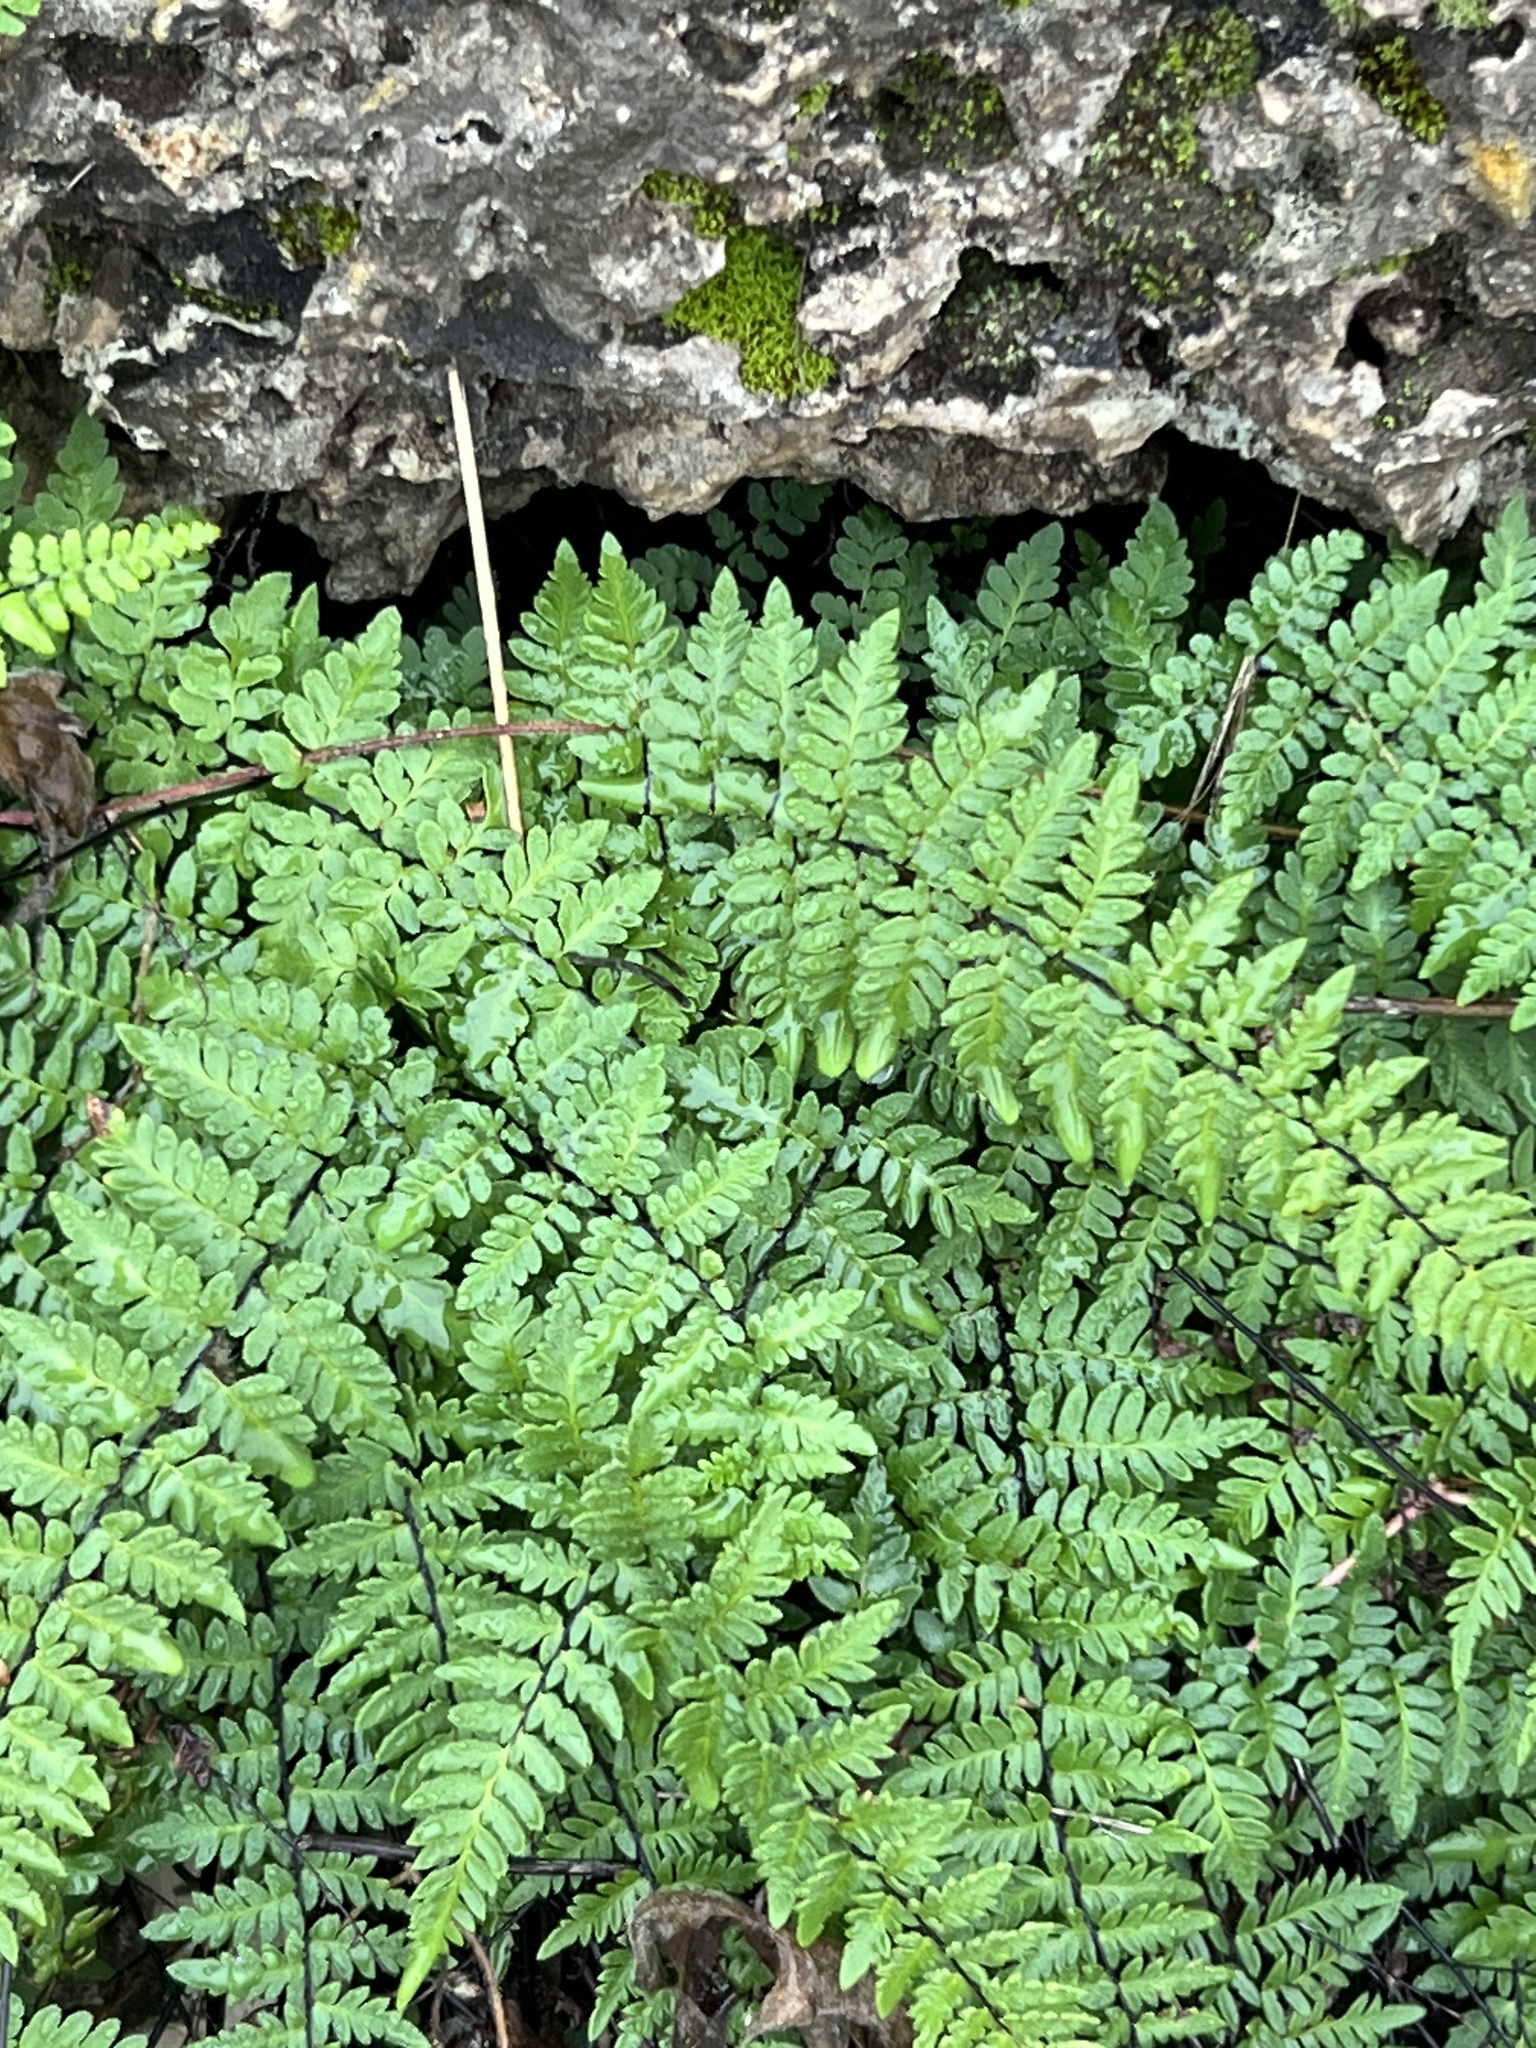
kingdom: Plantae
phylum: Tracheophyta
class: Polypodiopsida
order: Polypodiales
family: Pteridaceae
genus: Myriopteris
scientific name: Myriopteris alabamensis
